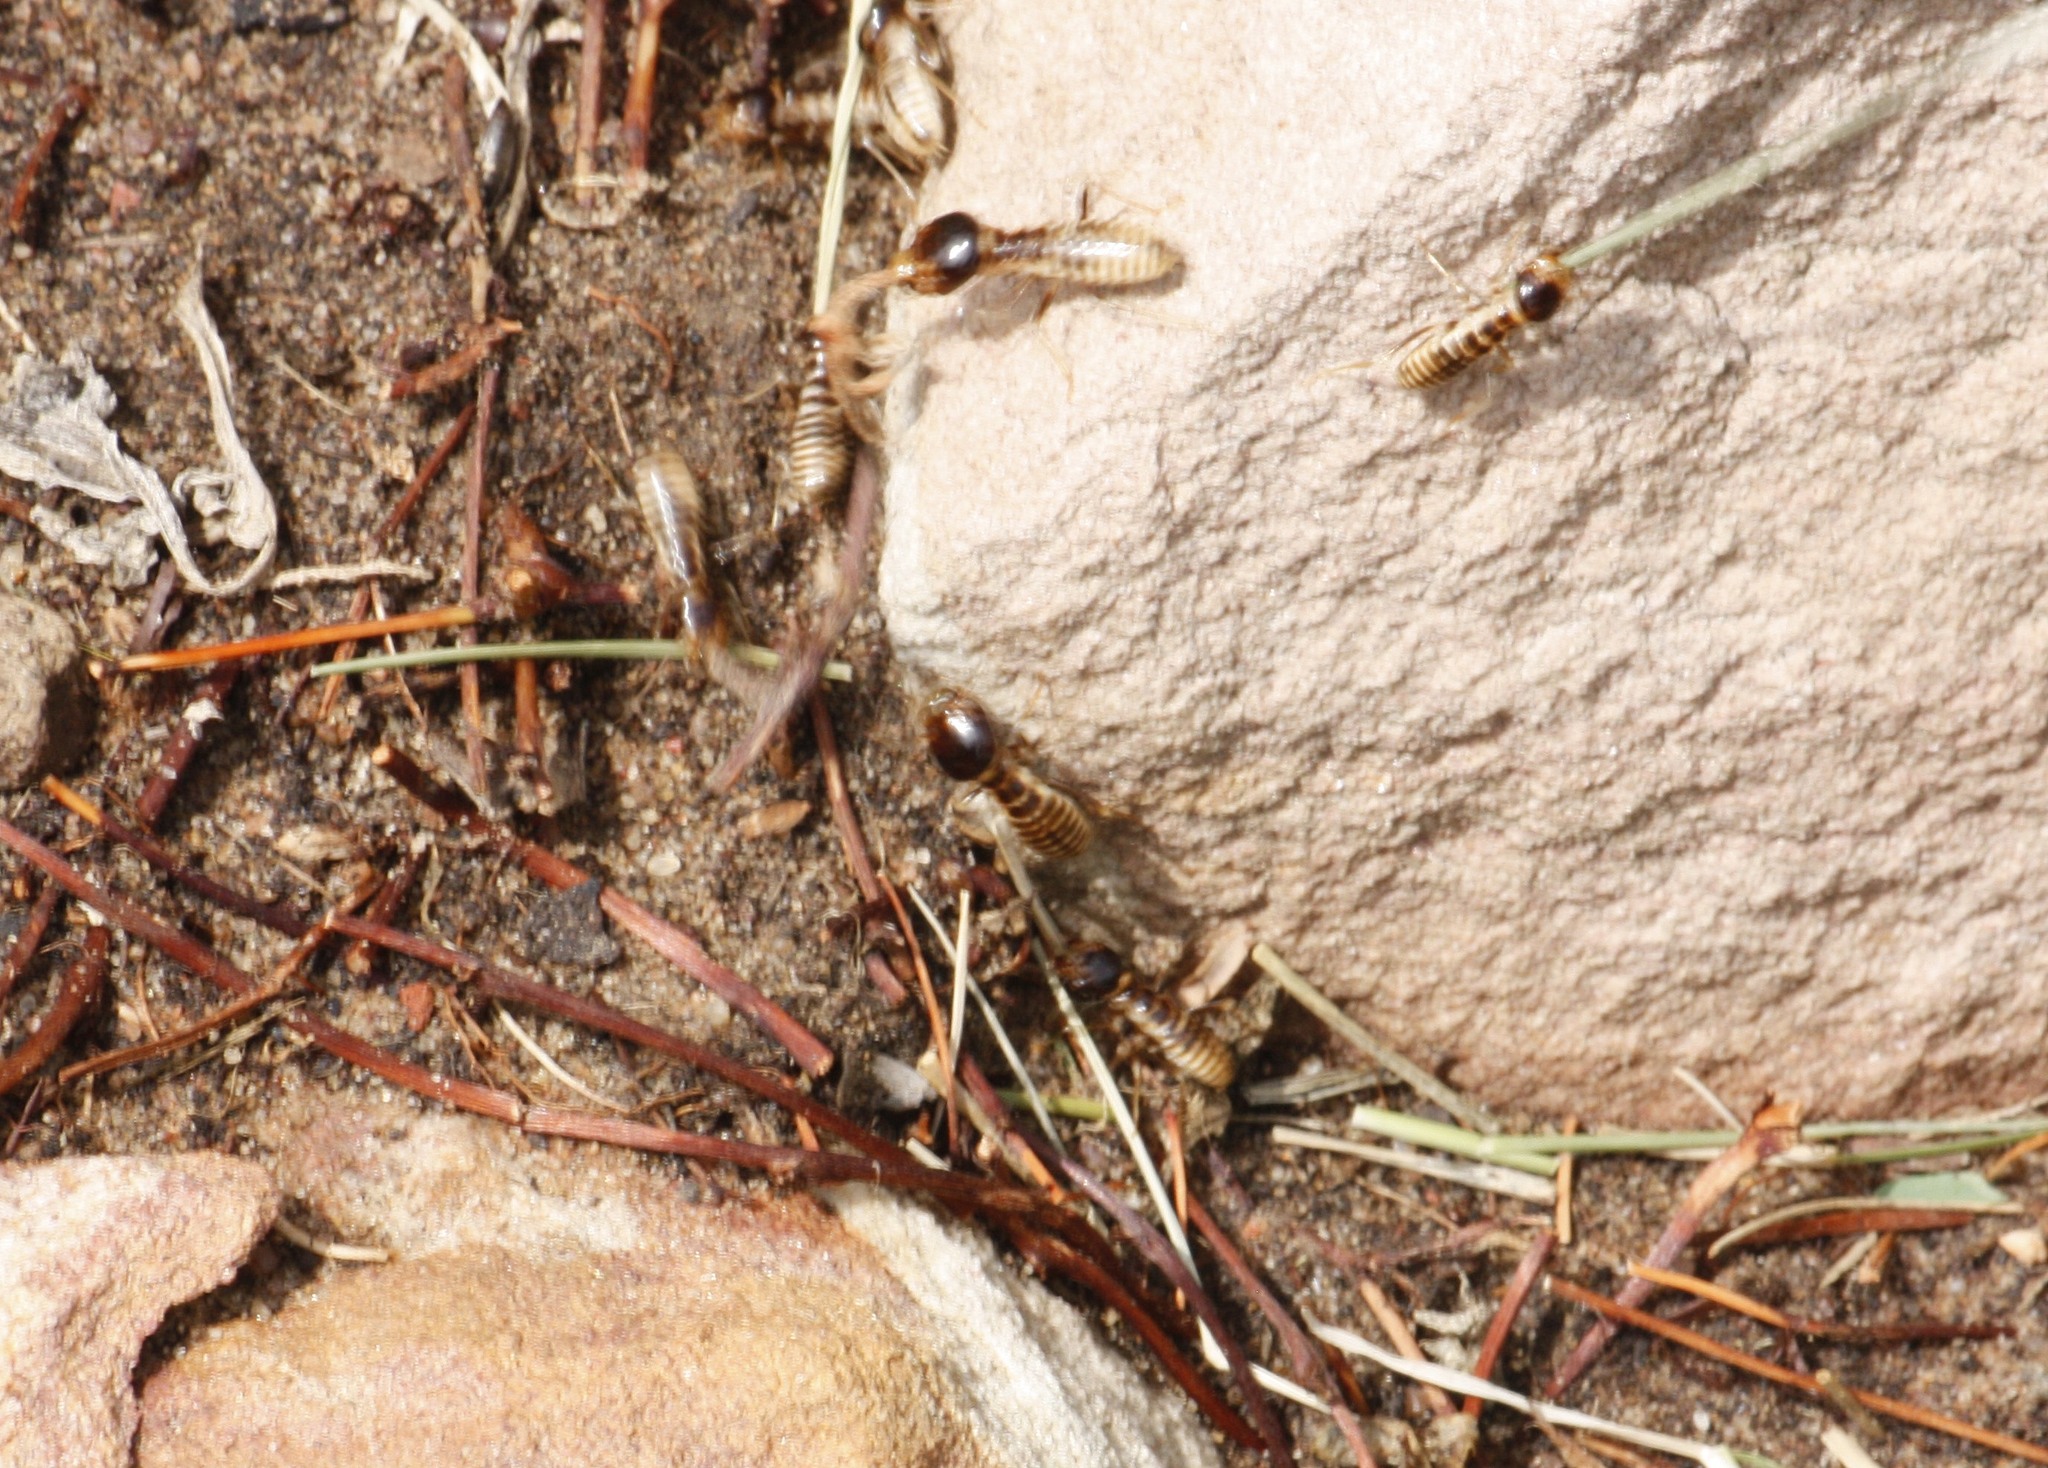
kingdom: Animalia
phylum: Arthropoda
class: Insecta
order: Blattodea
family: Hodotermitidae
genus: Hodotermes
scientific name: Hodotermes mossambicus
